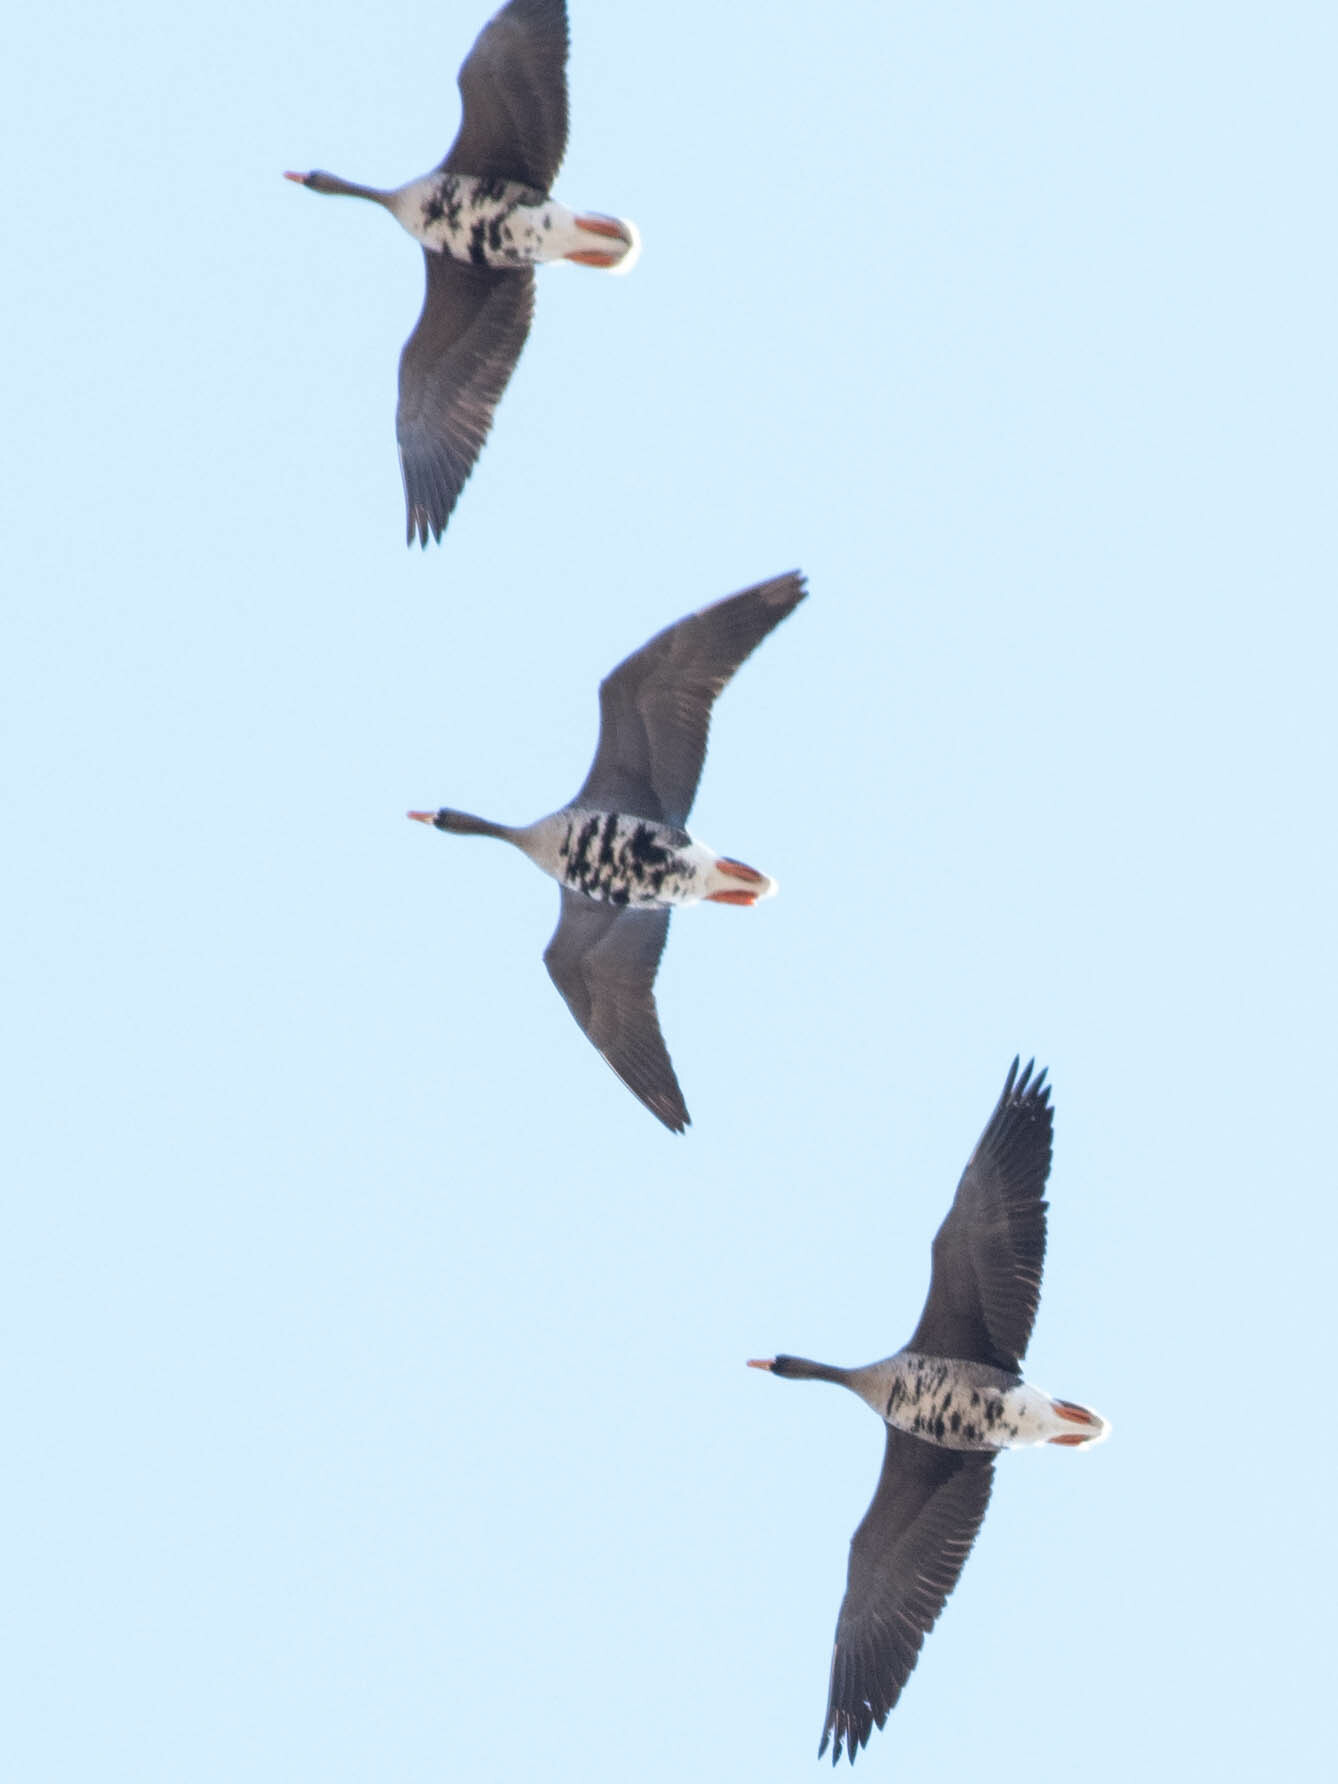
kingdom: Animalia
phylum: Chordata
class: Aves
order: Anseriformes
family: Anatidae
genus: Anser
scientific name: Anser albifrons
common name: Greater white-fronted goose
